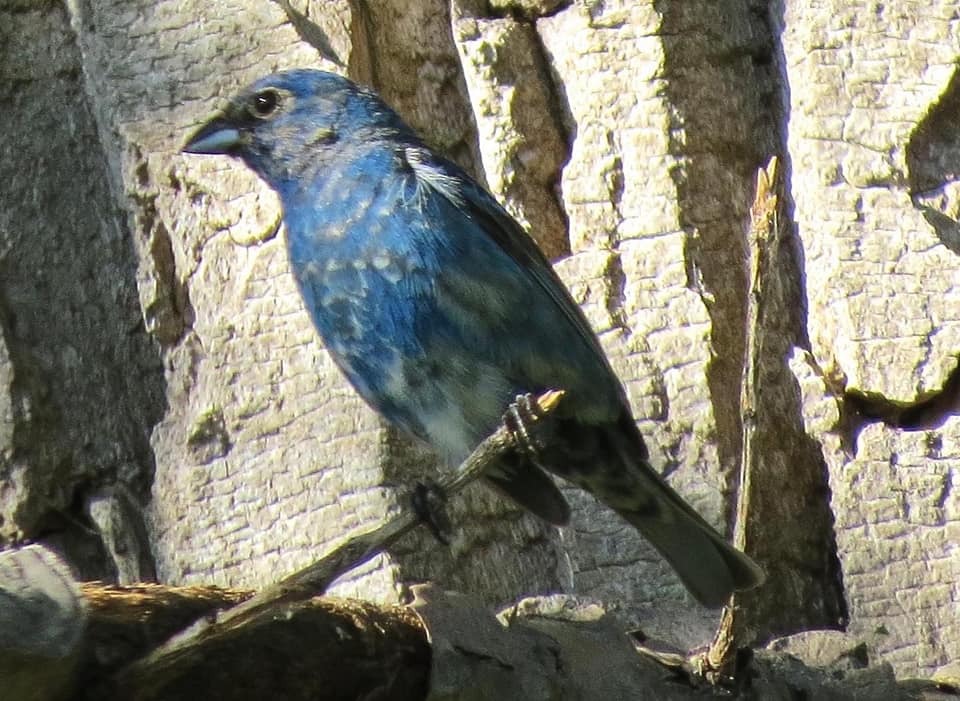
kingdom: Animalia
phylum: Chordata
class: Aves
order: Passeriformes
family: Cardinalidae
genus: Passerina
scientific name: Passerina cyanea
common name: Indigo bunting
